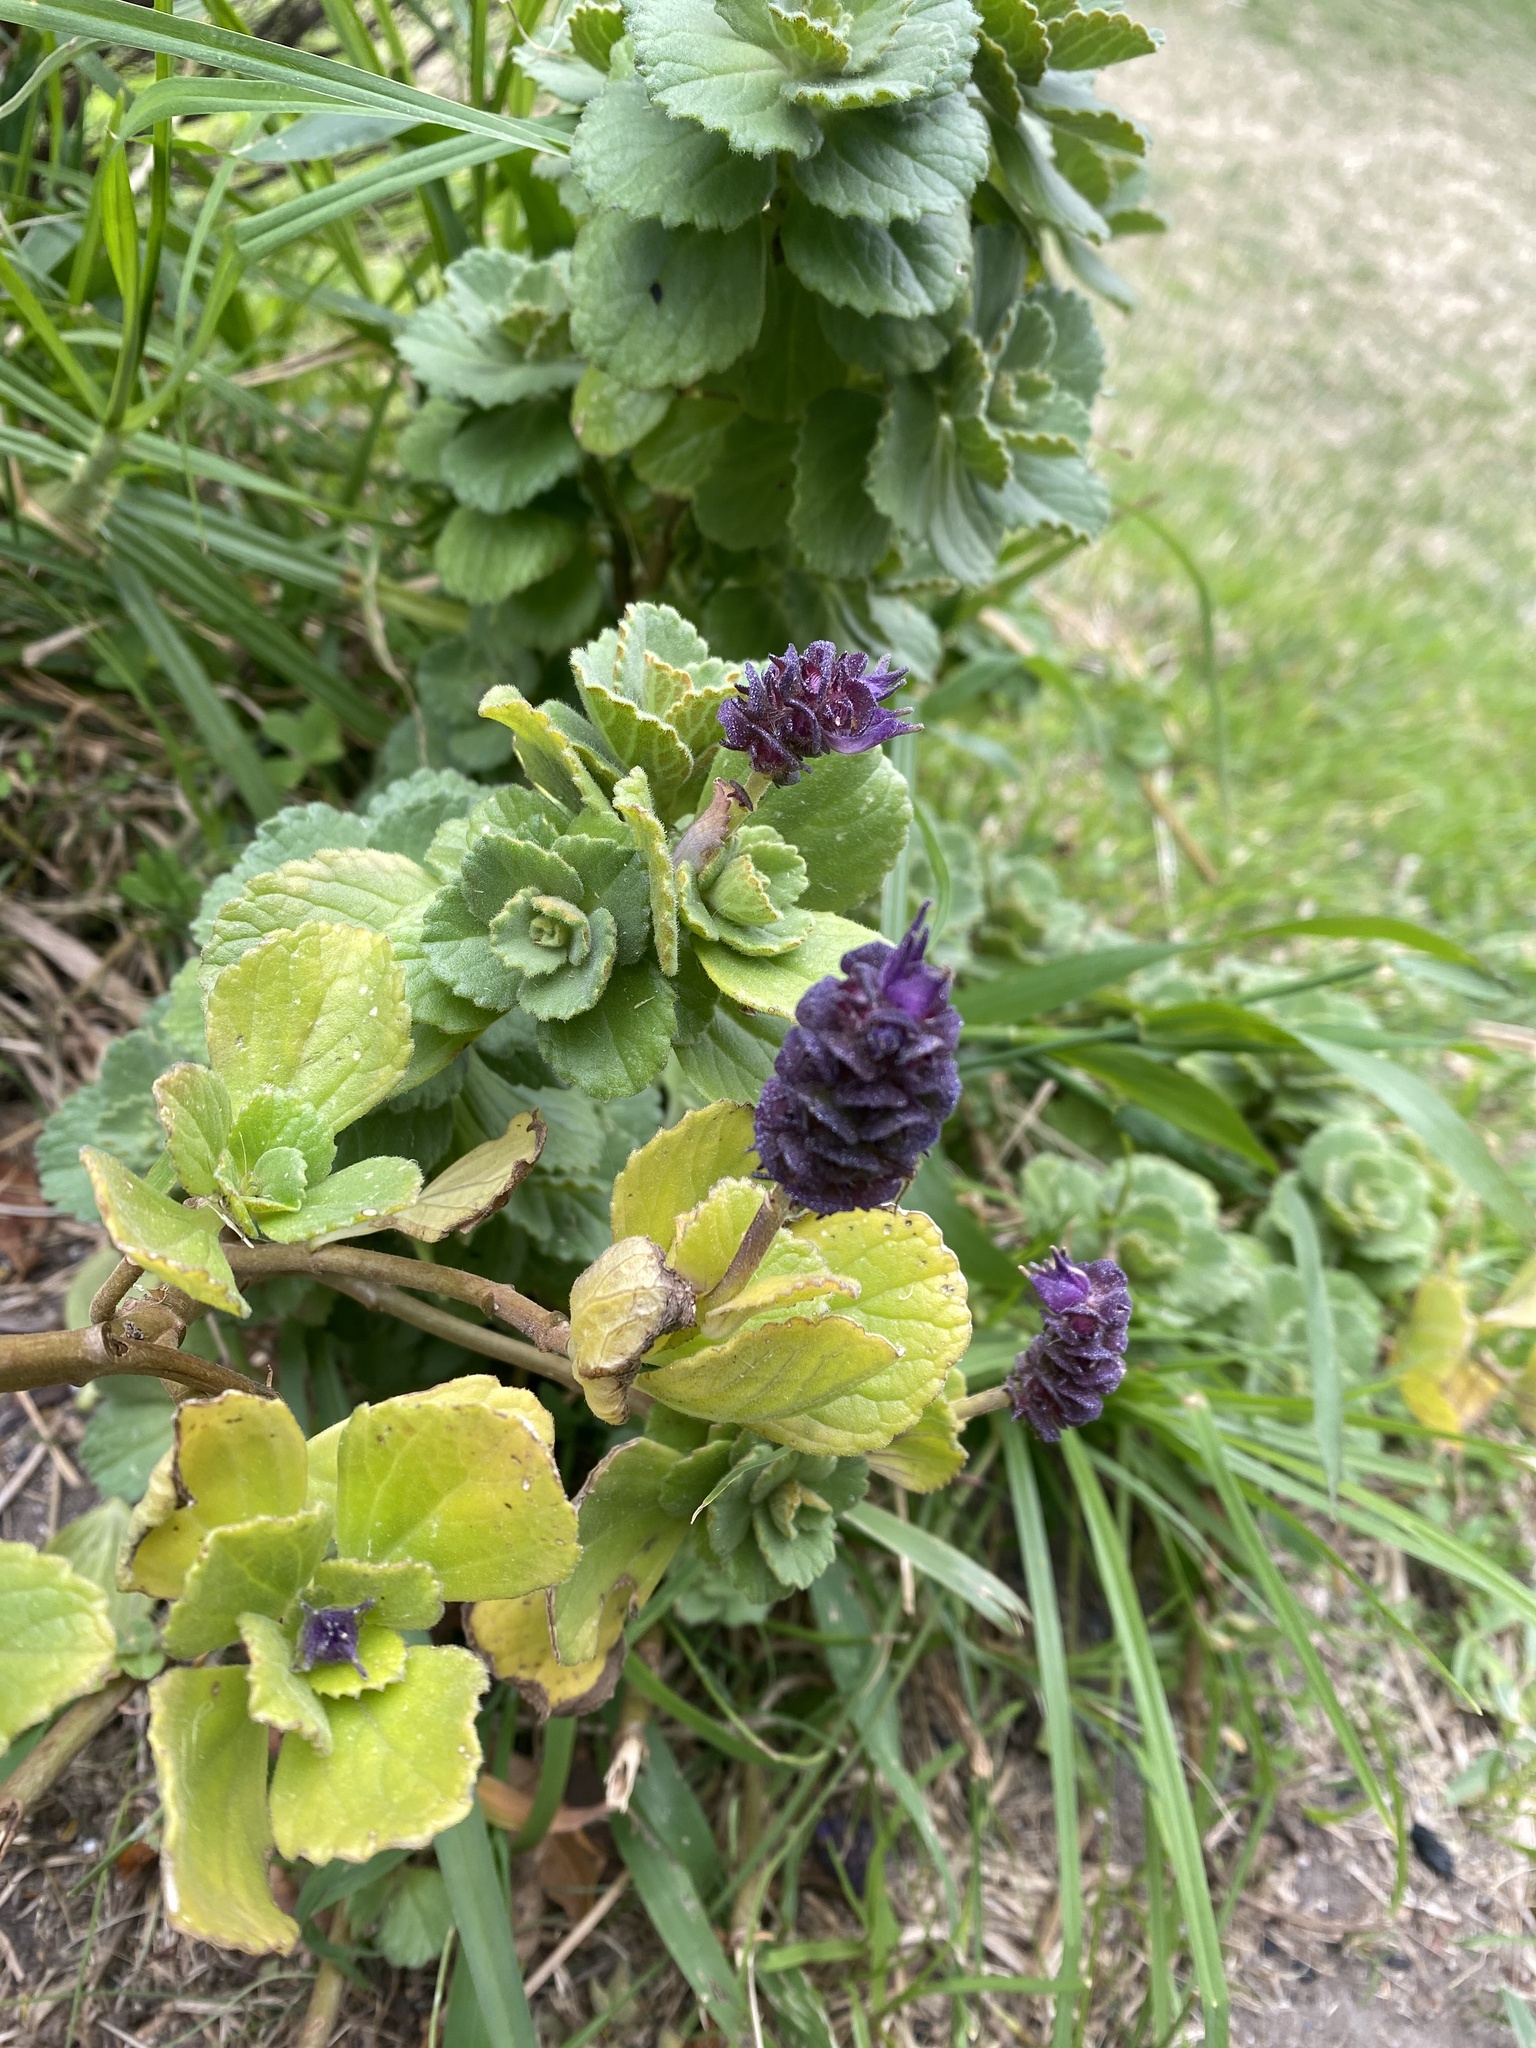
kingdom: Plantae
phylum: Tracheophyta
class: Magnoliopsida
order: Lamiales
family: Lamiaceae
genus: Coleus
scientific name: Coleus neochilus
